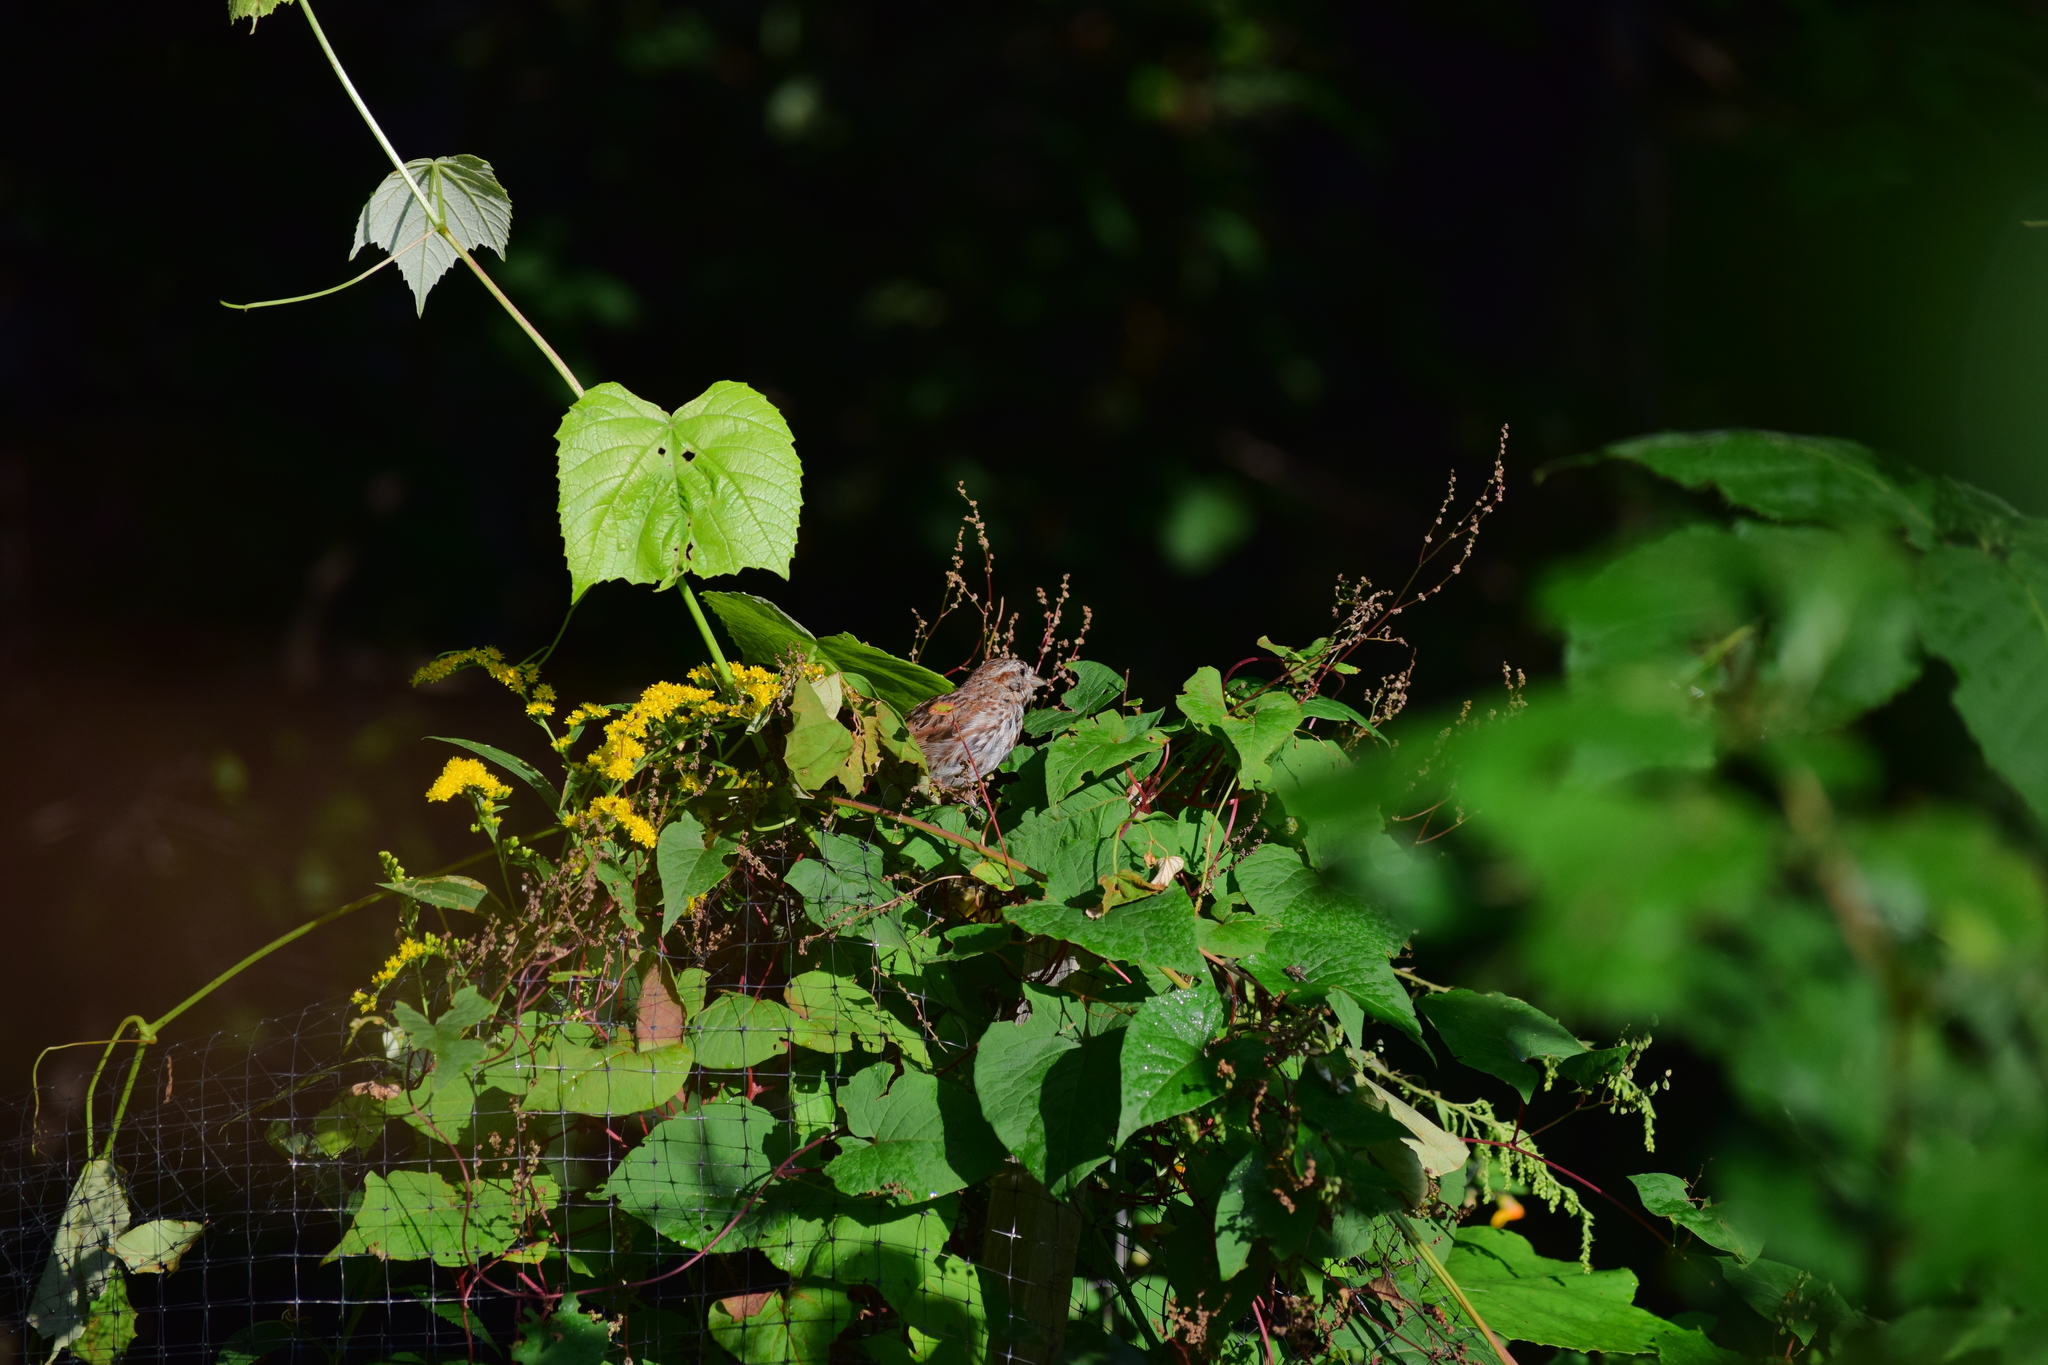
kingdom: Animalia
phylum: Chordata
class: Aves
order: Passeriformes
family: Passerellidae
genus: Melospiza
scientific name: Melospiza melodia
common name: Song sparrow
